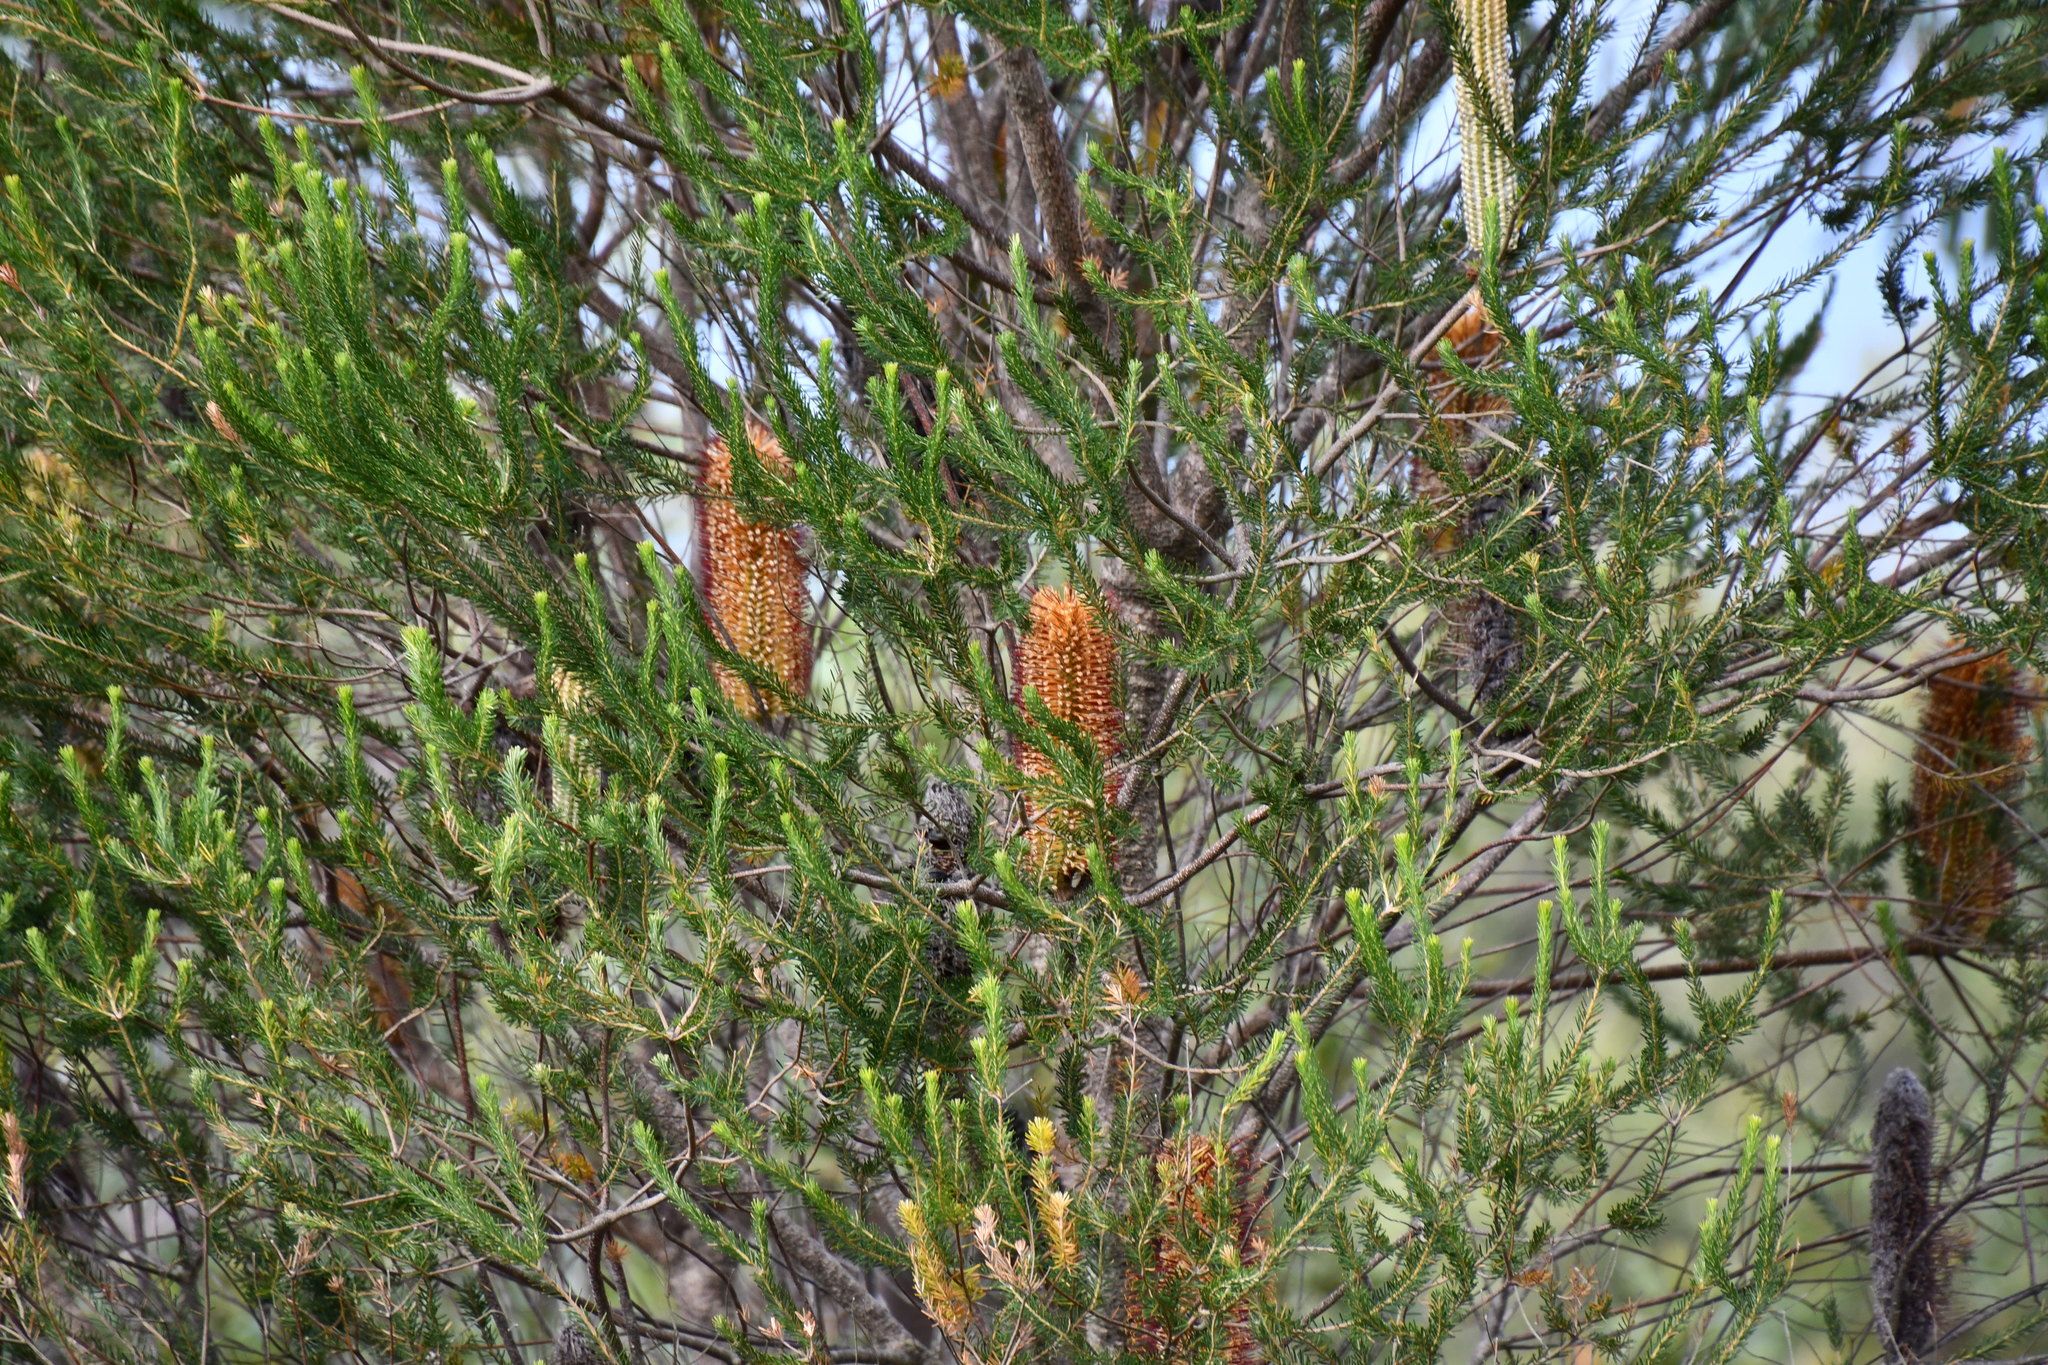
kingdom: Plantae
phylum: Tracheophyta
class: Magnoliopsida
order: Proteales
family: Proteaceae
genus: Banksia
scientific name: Banksia ericifolia
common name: Heath-leaf banksia
